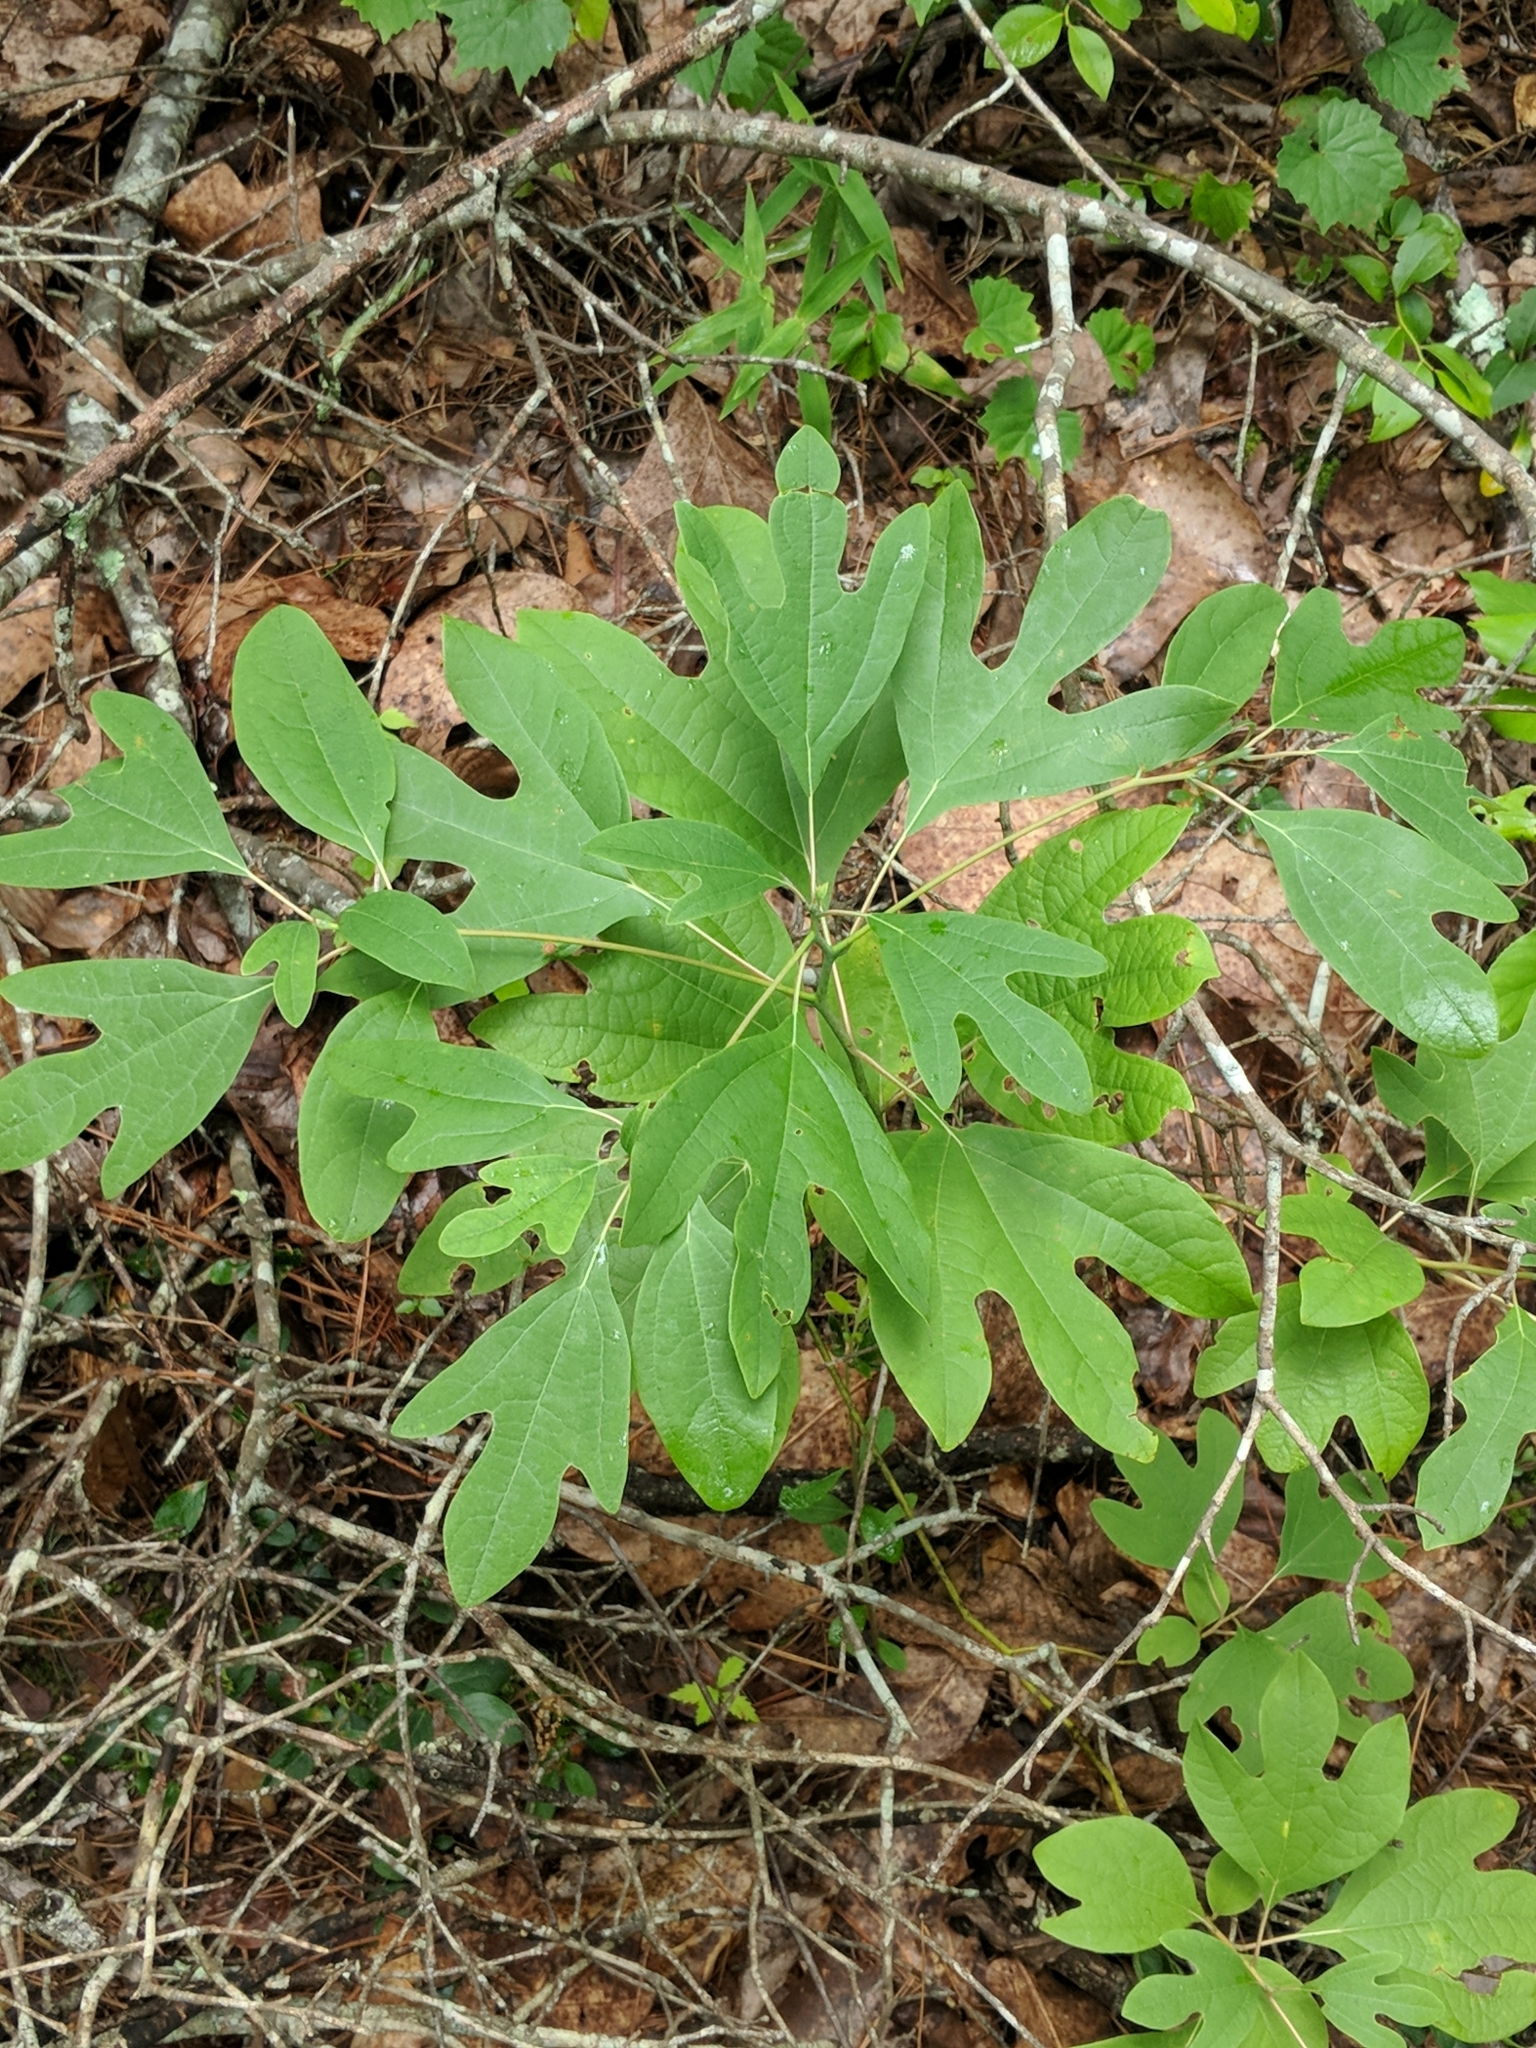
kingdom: Plantae
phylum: Tracheophyta
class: Magnoliopsida
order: Laurales
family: Lauraceae
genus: Sassafras
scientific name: Sassafras albidum
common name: Sassafras
